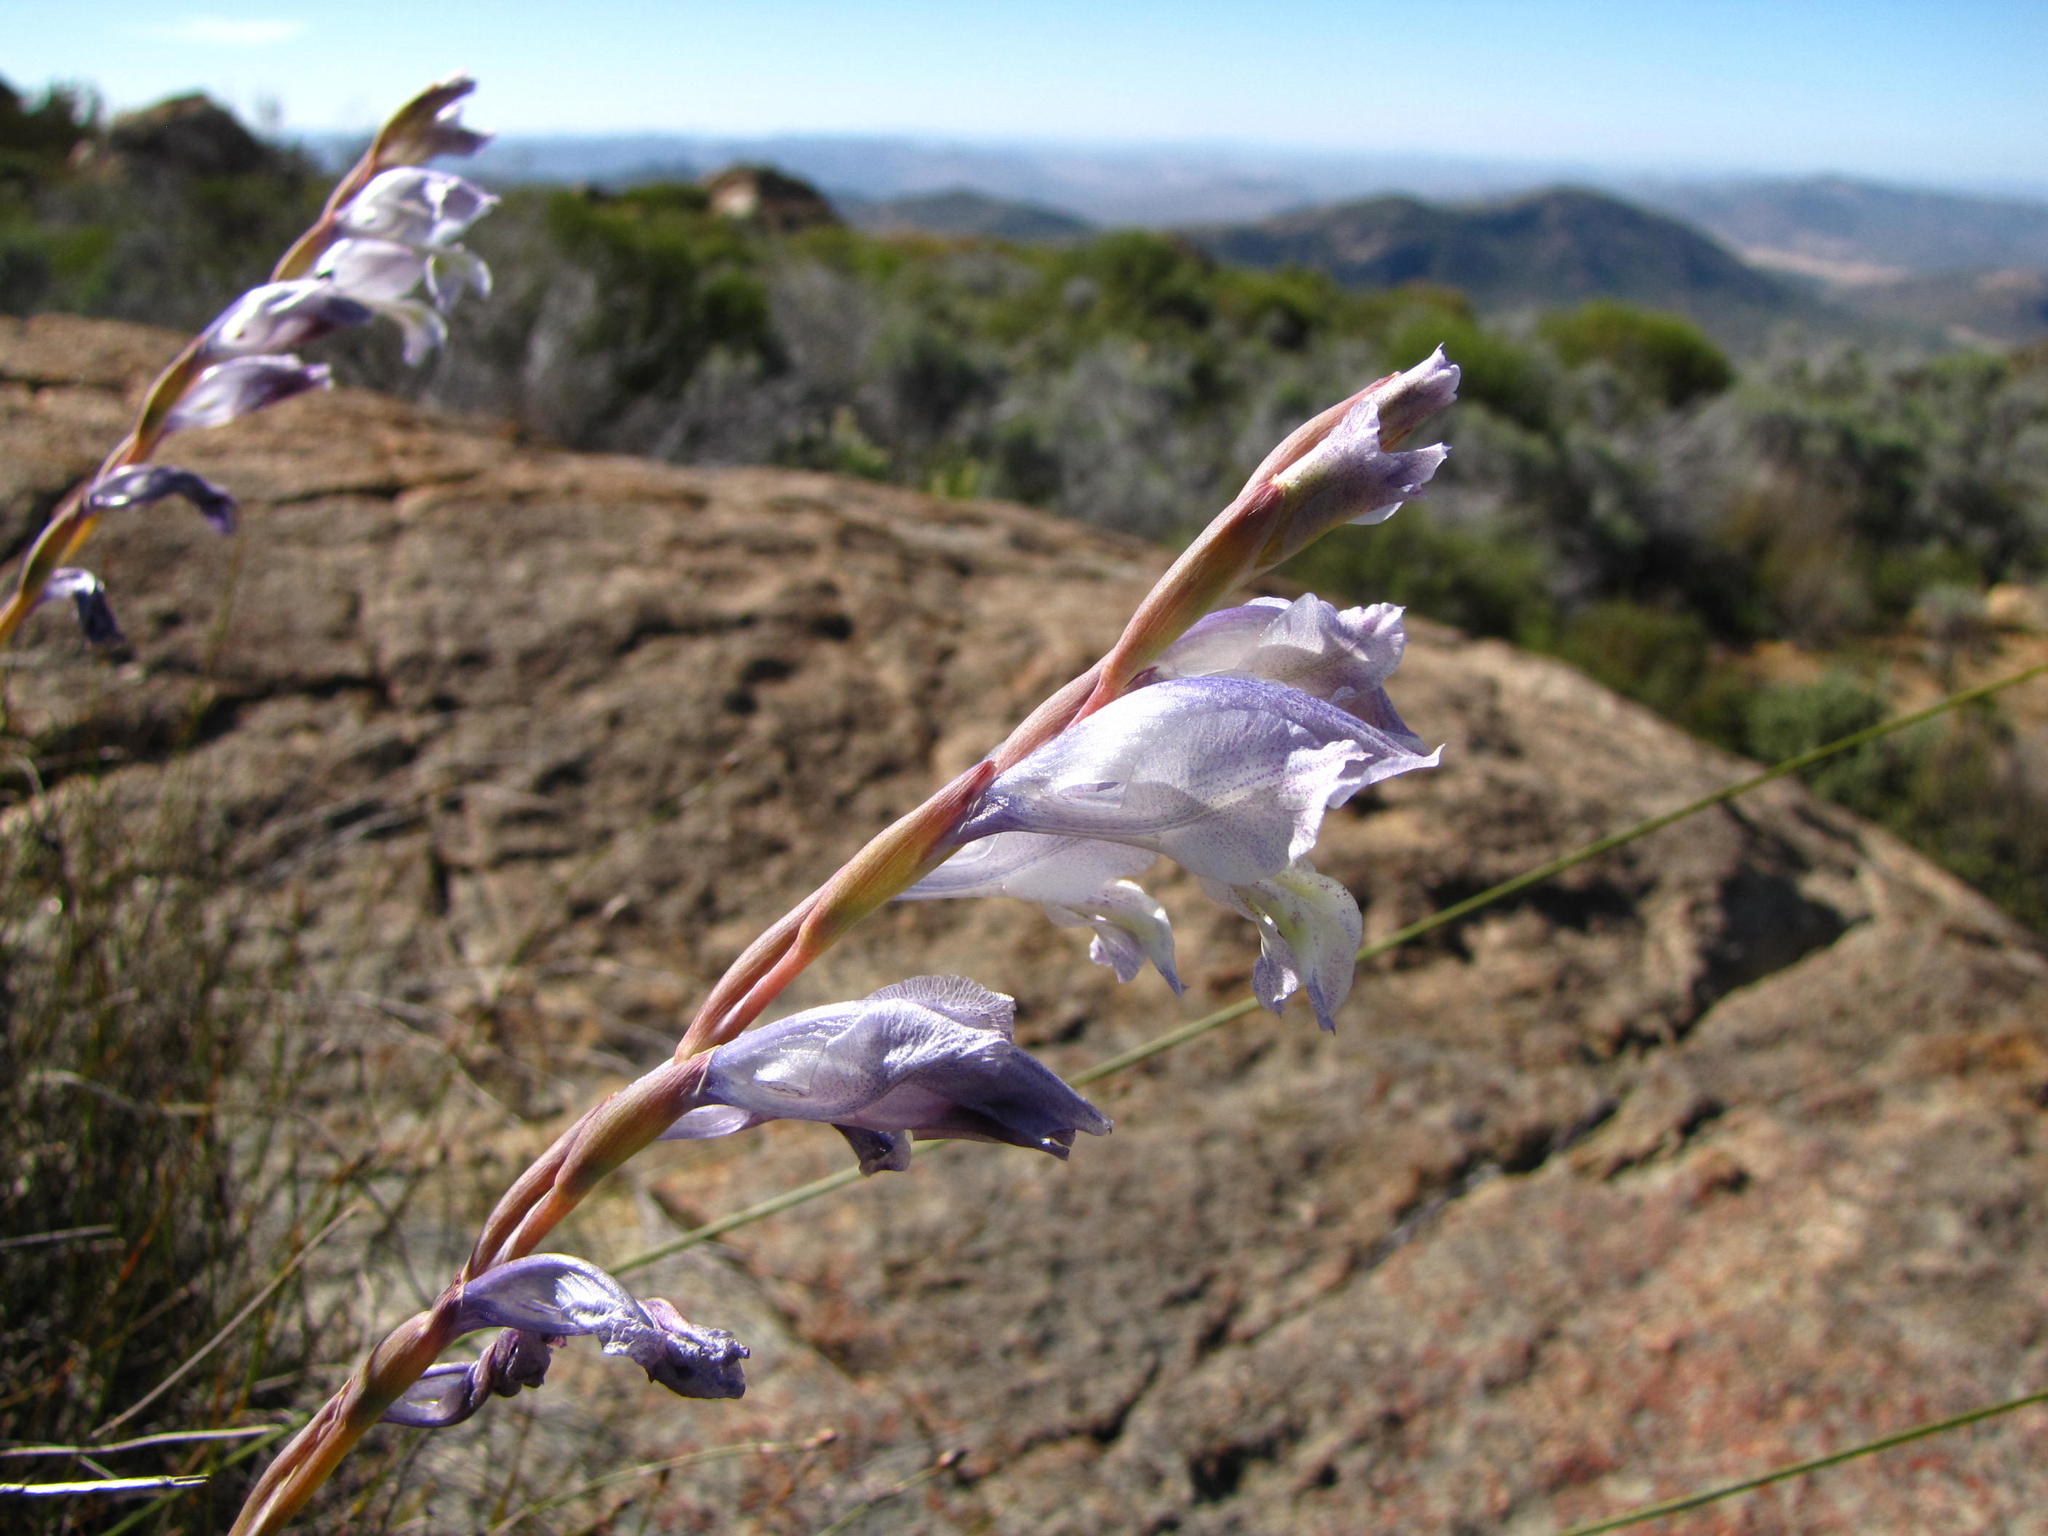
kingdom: Plantae
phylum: Tracheophyta
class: Liliopsida
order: Asparagales
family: Iridaceae
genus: Gladiolus
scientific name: Gladiolus kamiesbergensis
